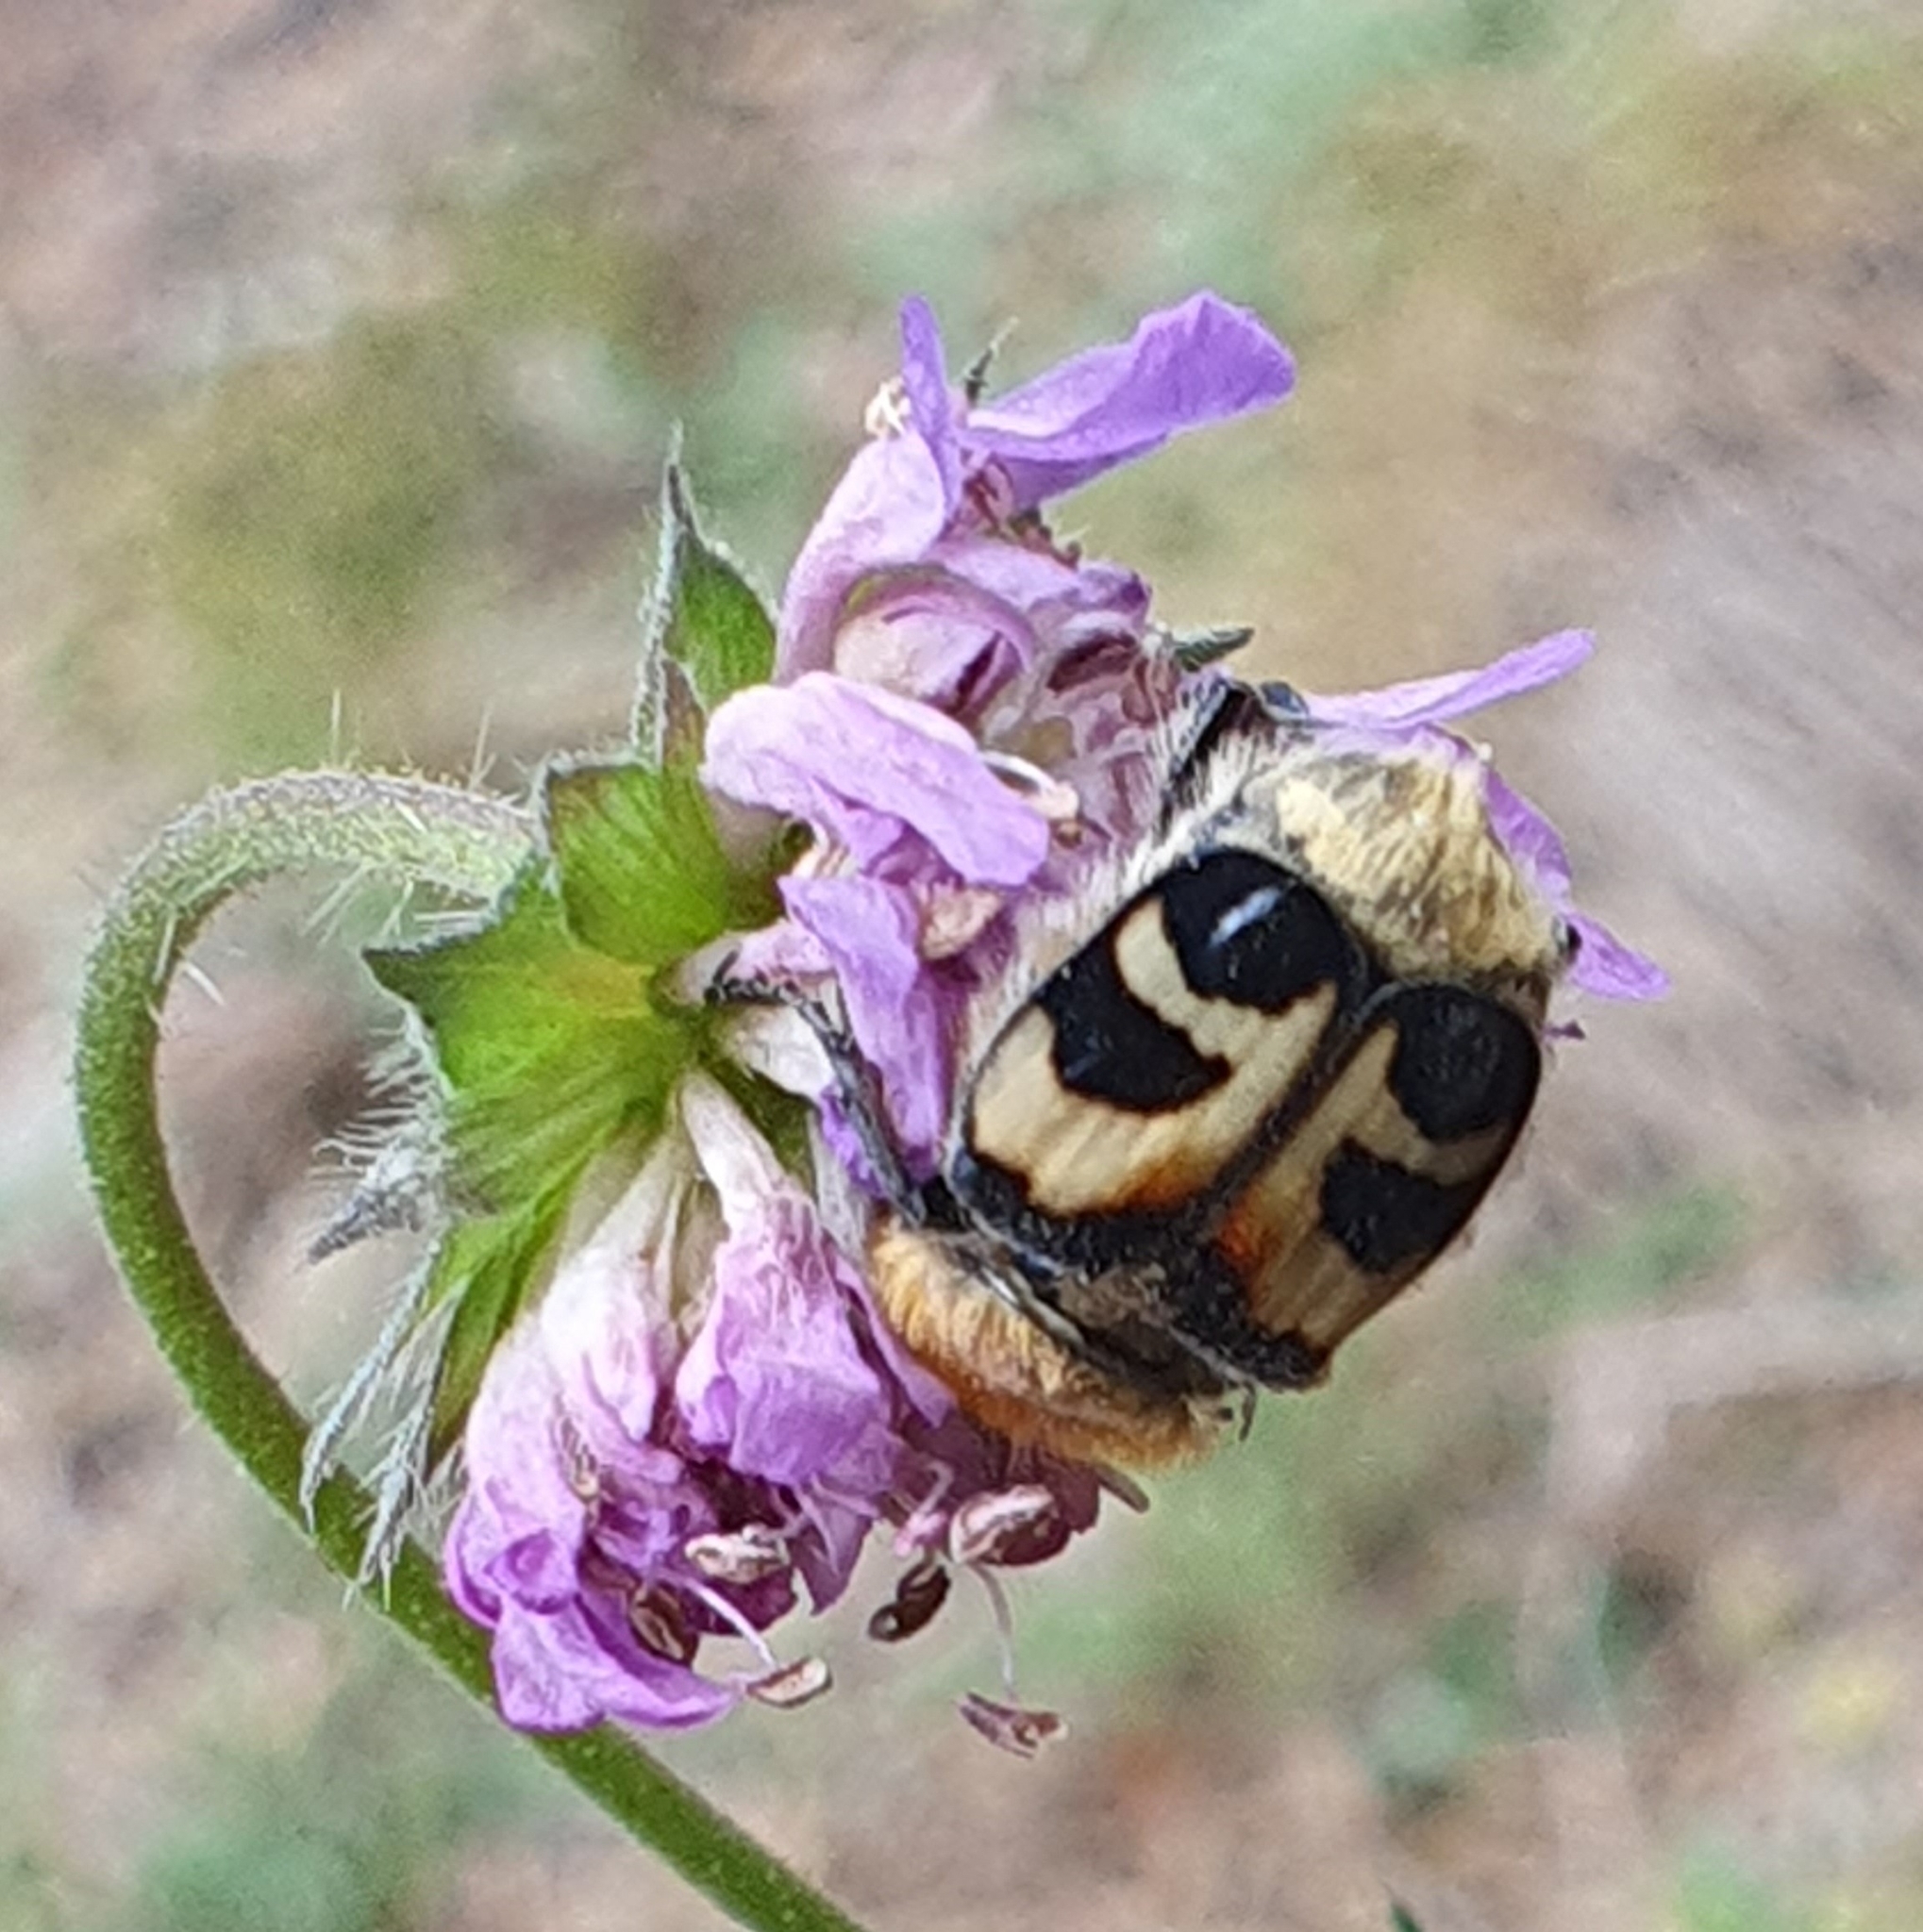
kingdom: Animalia
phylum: Arthropoda
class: Insecta
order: Coleoptera
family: Scarabaeidae
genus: Trichius
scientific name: Trichius fasciatus
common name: Bee beetle
